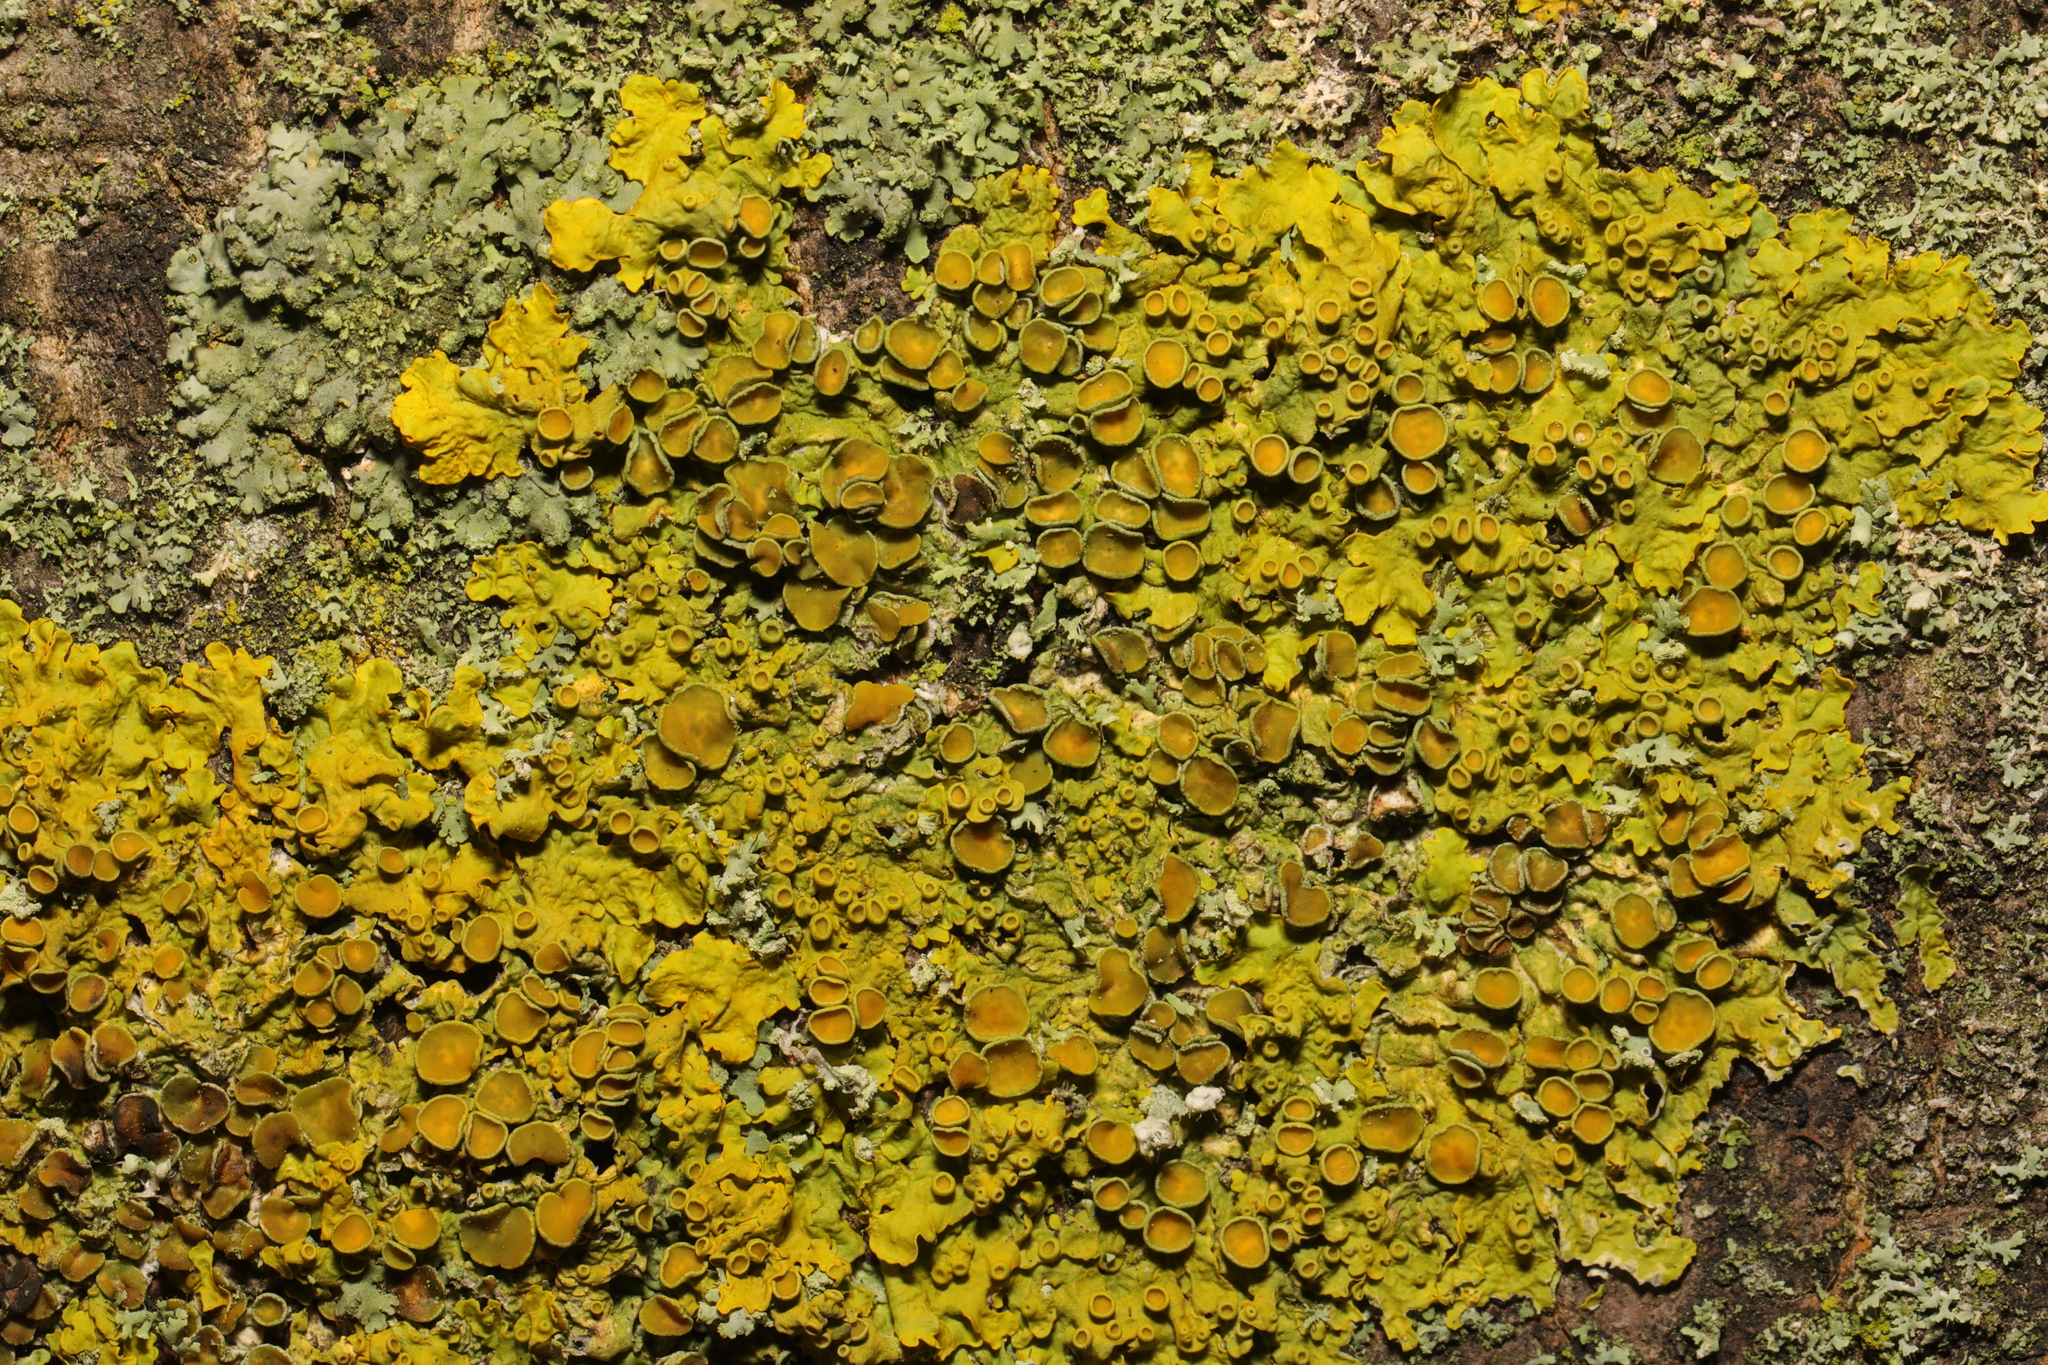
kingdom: Fungi
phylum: Ascomycota
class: Lecanoromycetes
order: Teloschistales
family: Teloschistaceae
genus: Xanthoria
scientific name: Xanthoria parietina
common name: Common orange lichen
